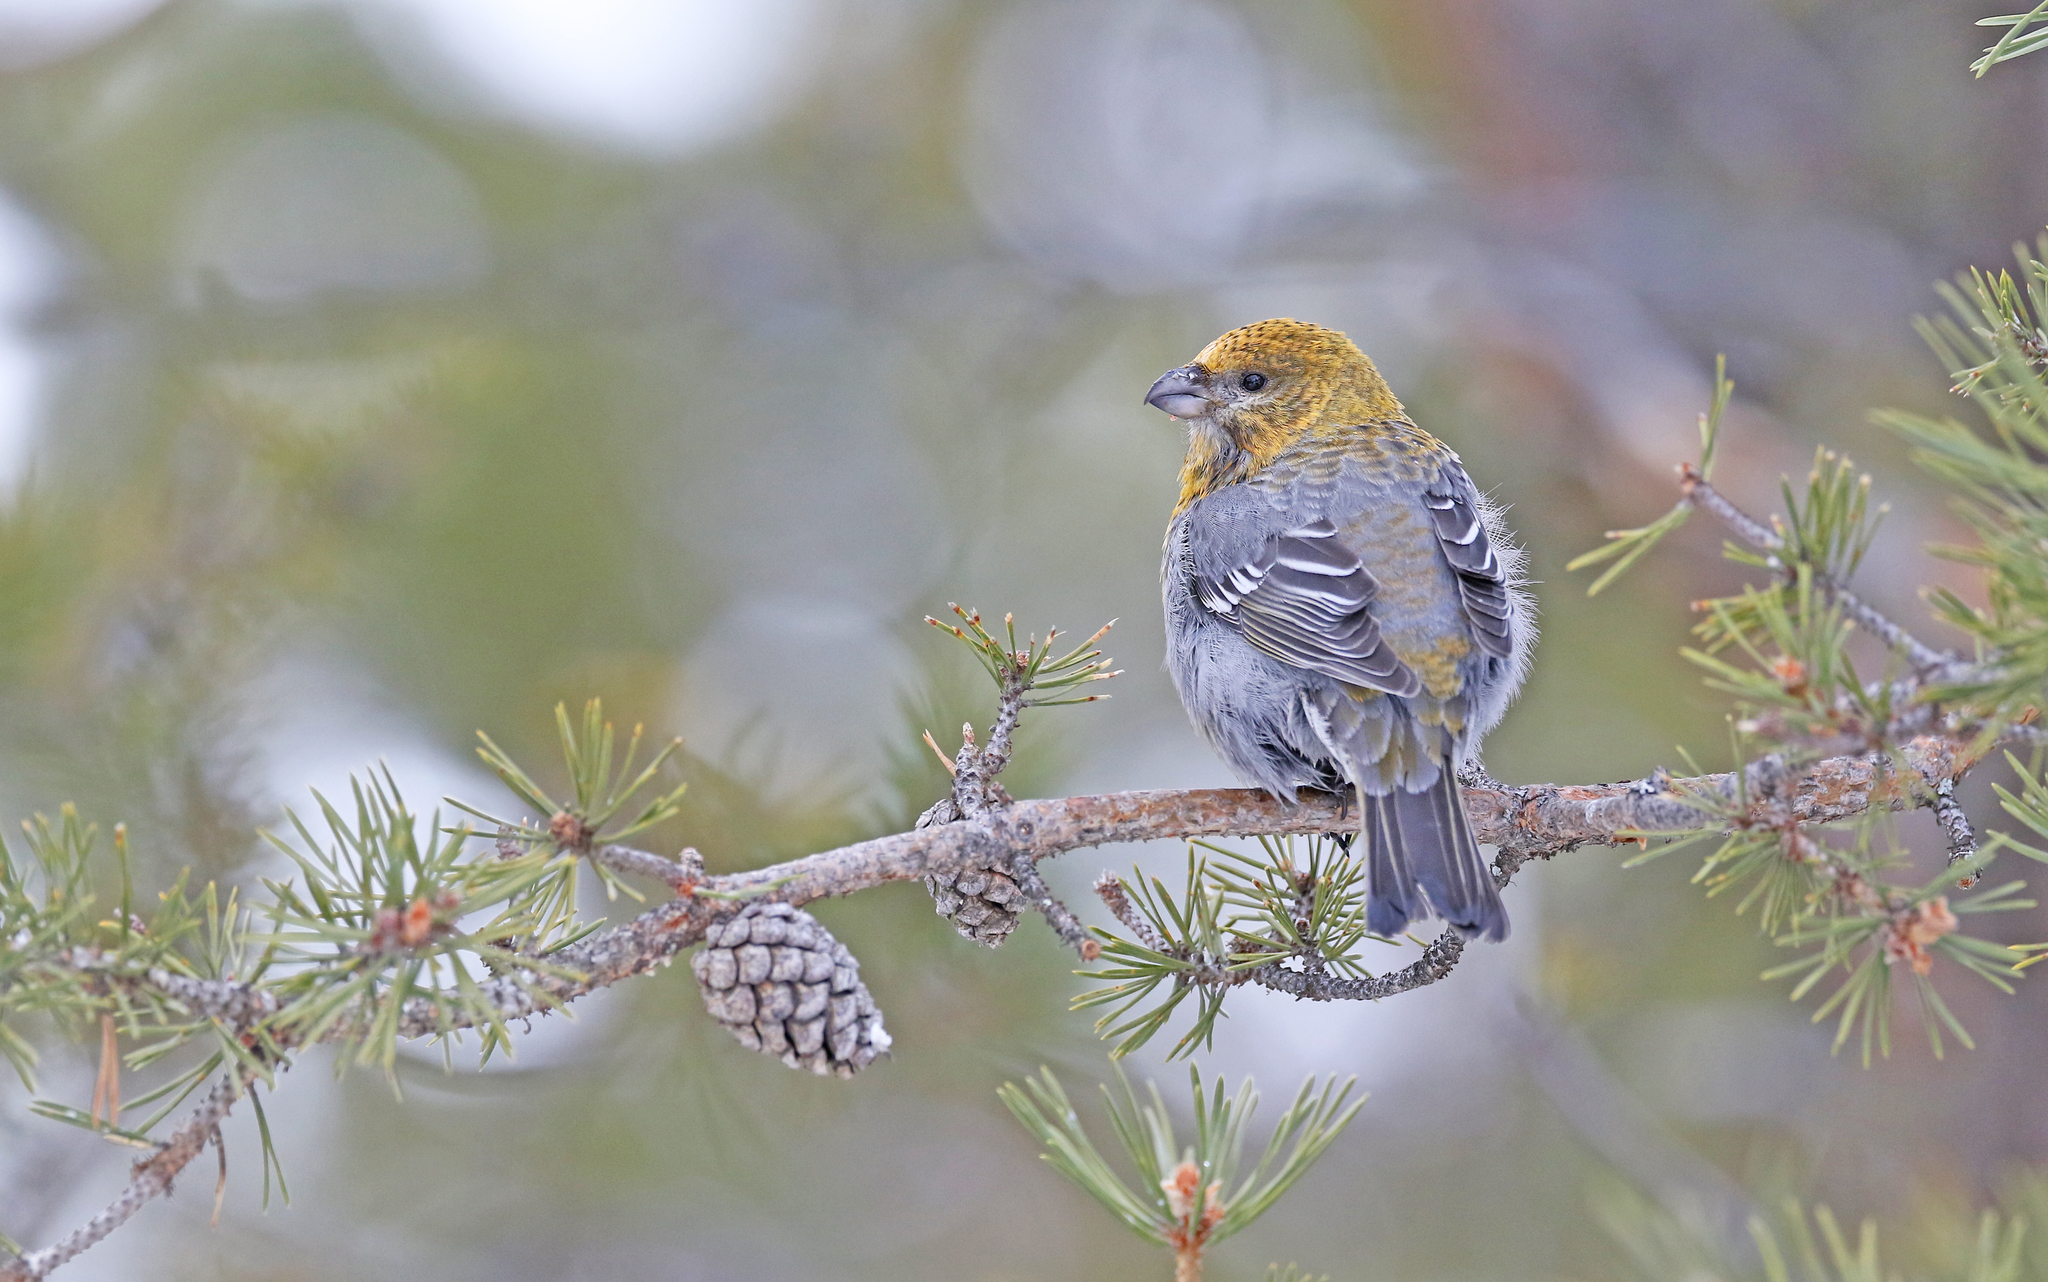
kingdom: Animalia
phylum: Chordata
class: Aves
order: Passeriformes
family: Fringillidae
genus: Pinicola
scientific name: Pinicola enucleator
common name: Pine grosbeak
